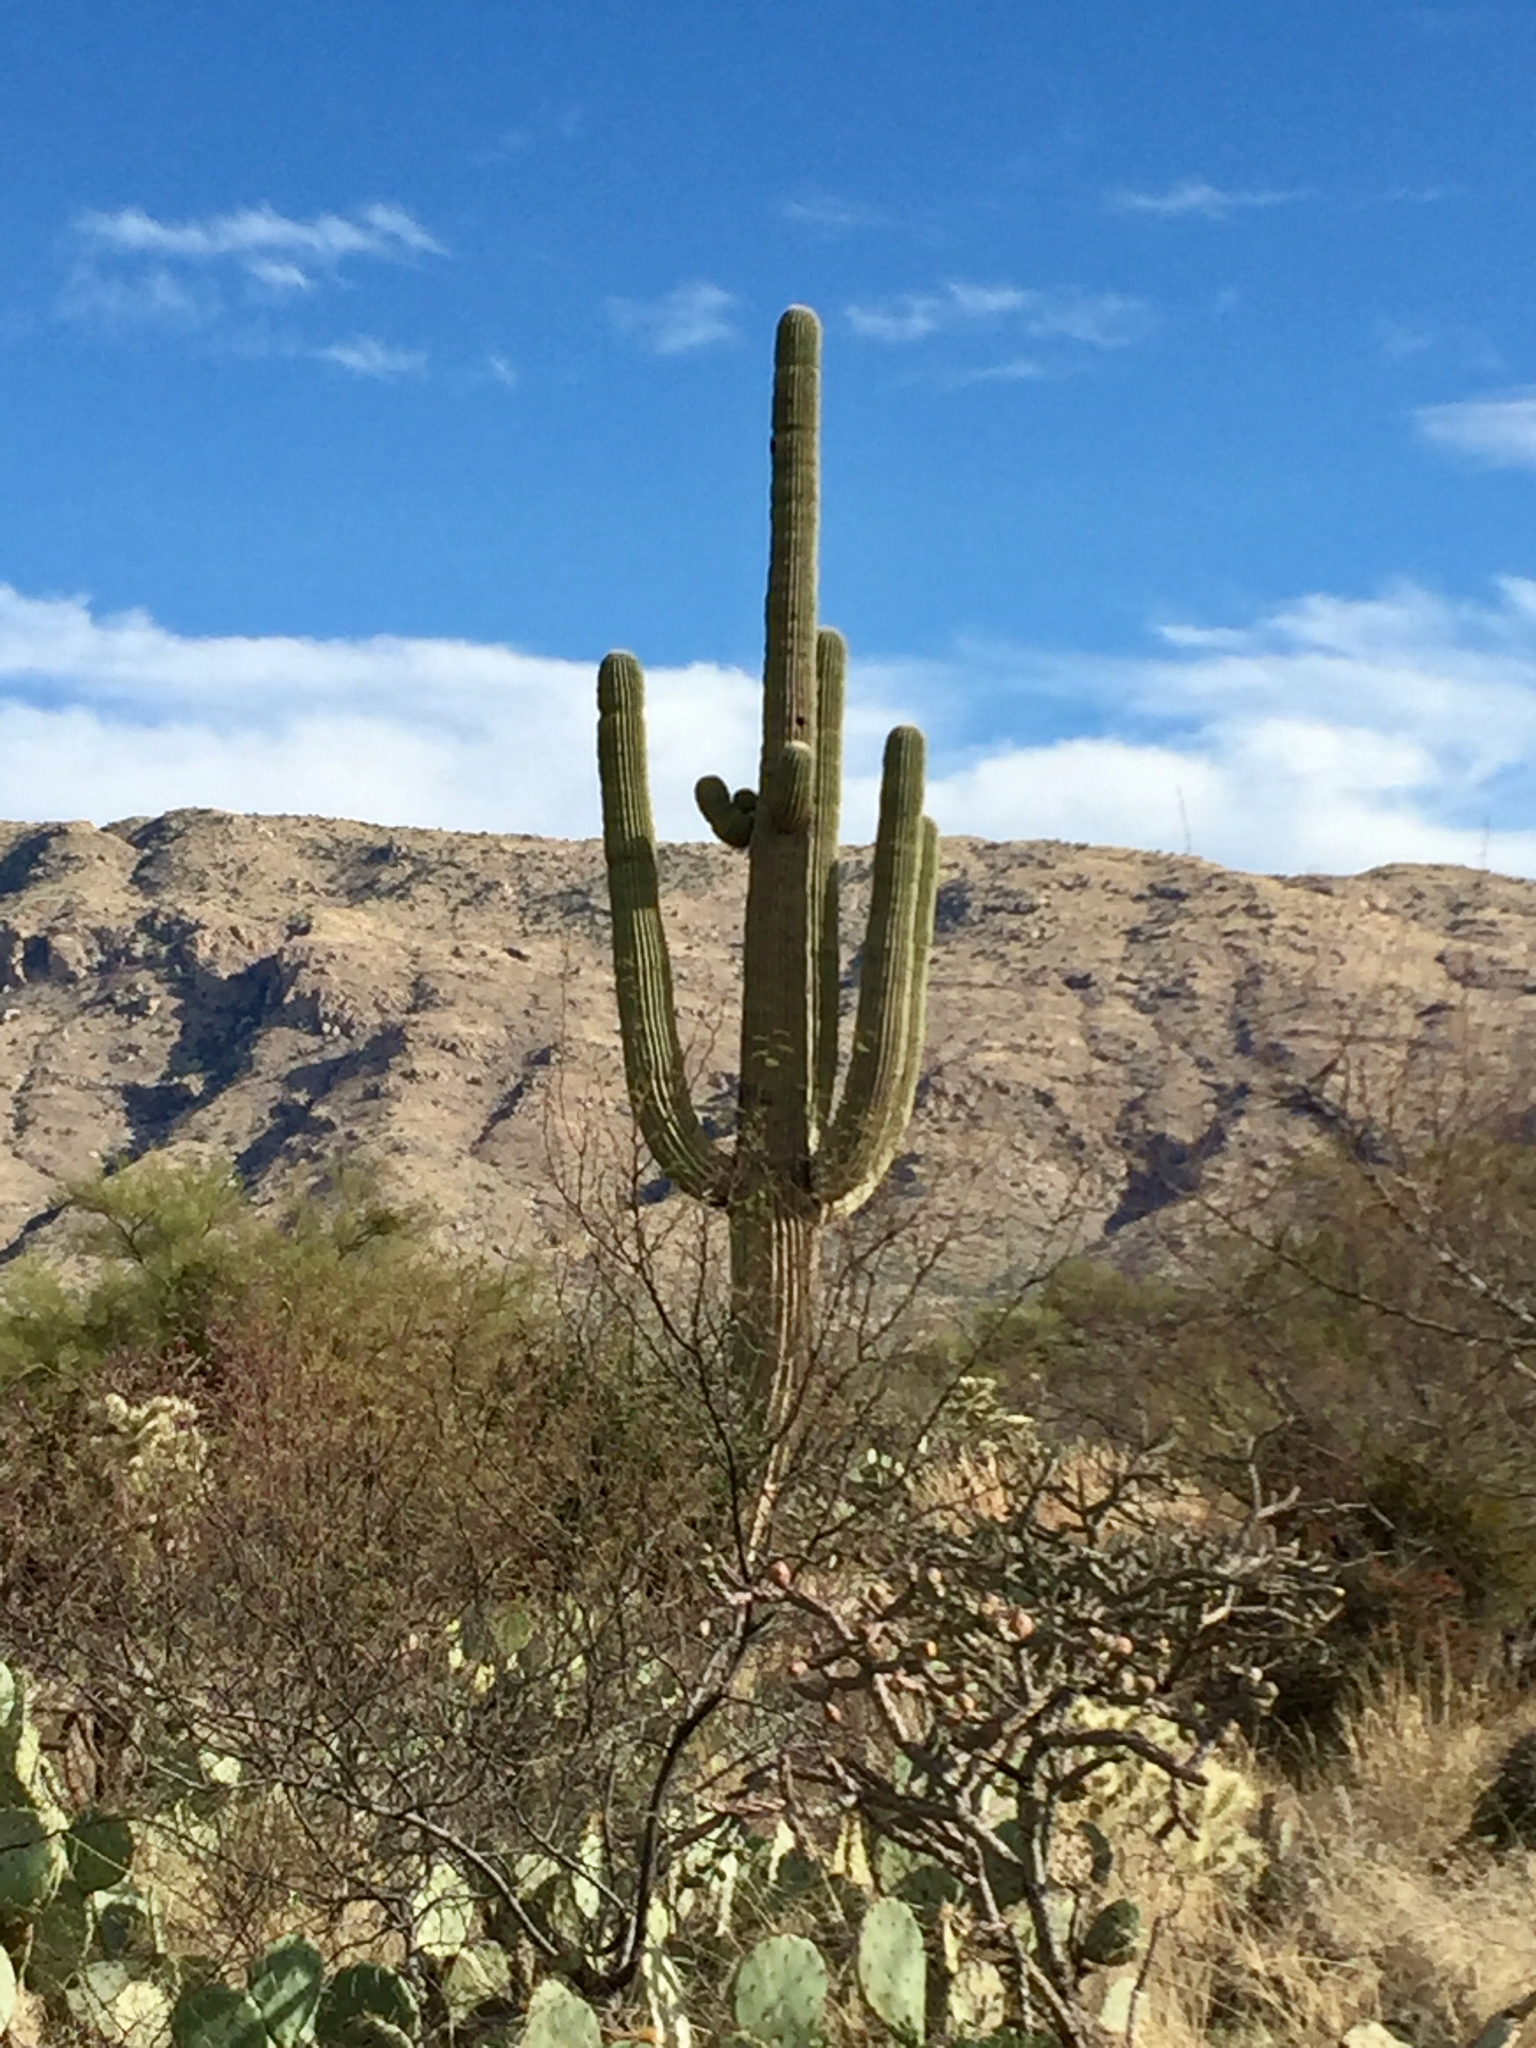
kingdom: Plantae
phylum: Tracheophyta
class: Magnoliopsida
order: Caryophyllales
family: Cactaceae
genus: Carnegiea
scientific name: Carnegiea gigantea
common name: Saguaro
